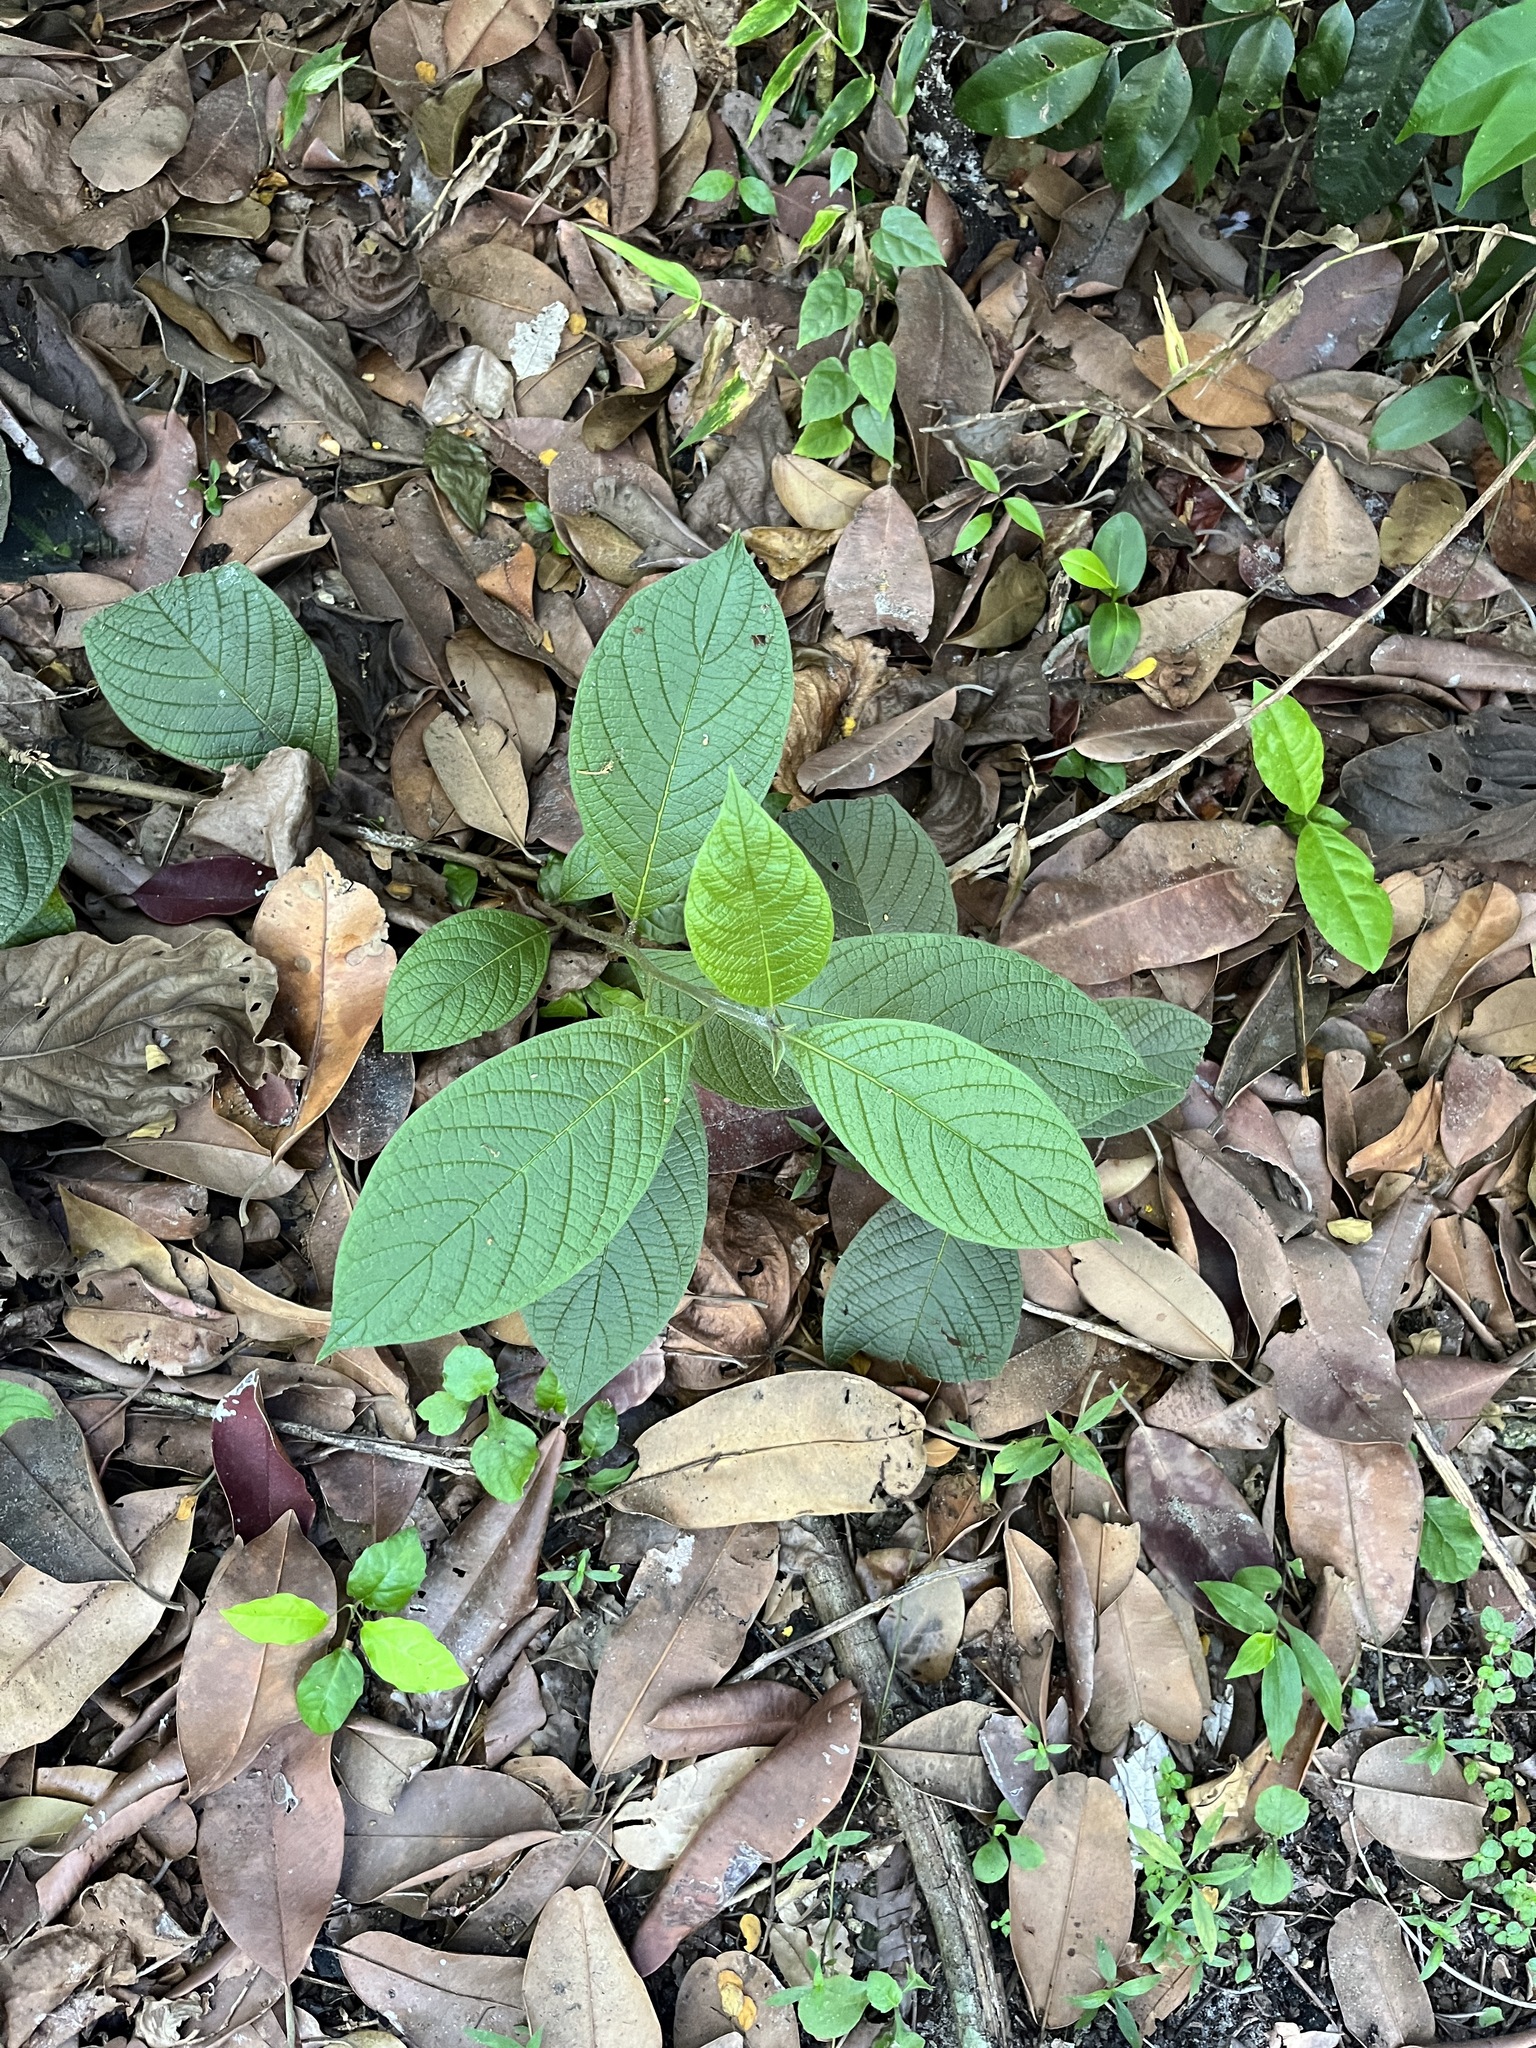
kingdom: Plantae
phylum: Tracheophyta
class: Magnoliopsida
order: Boraginales
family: Heliotropiaceae
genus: Heliotropium
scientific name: Heliotropium verdcourtii
